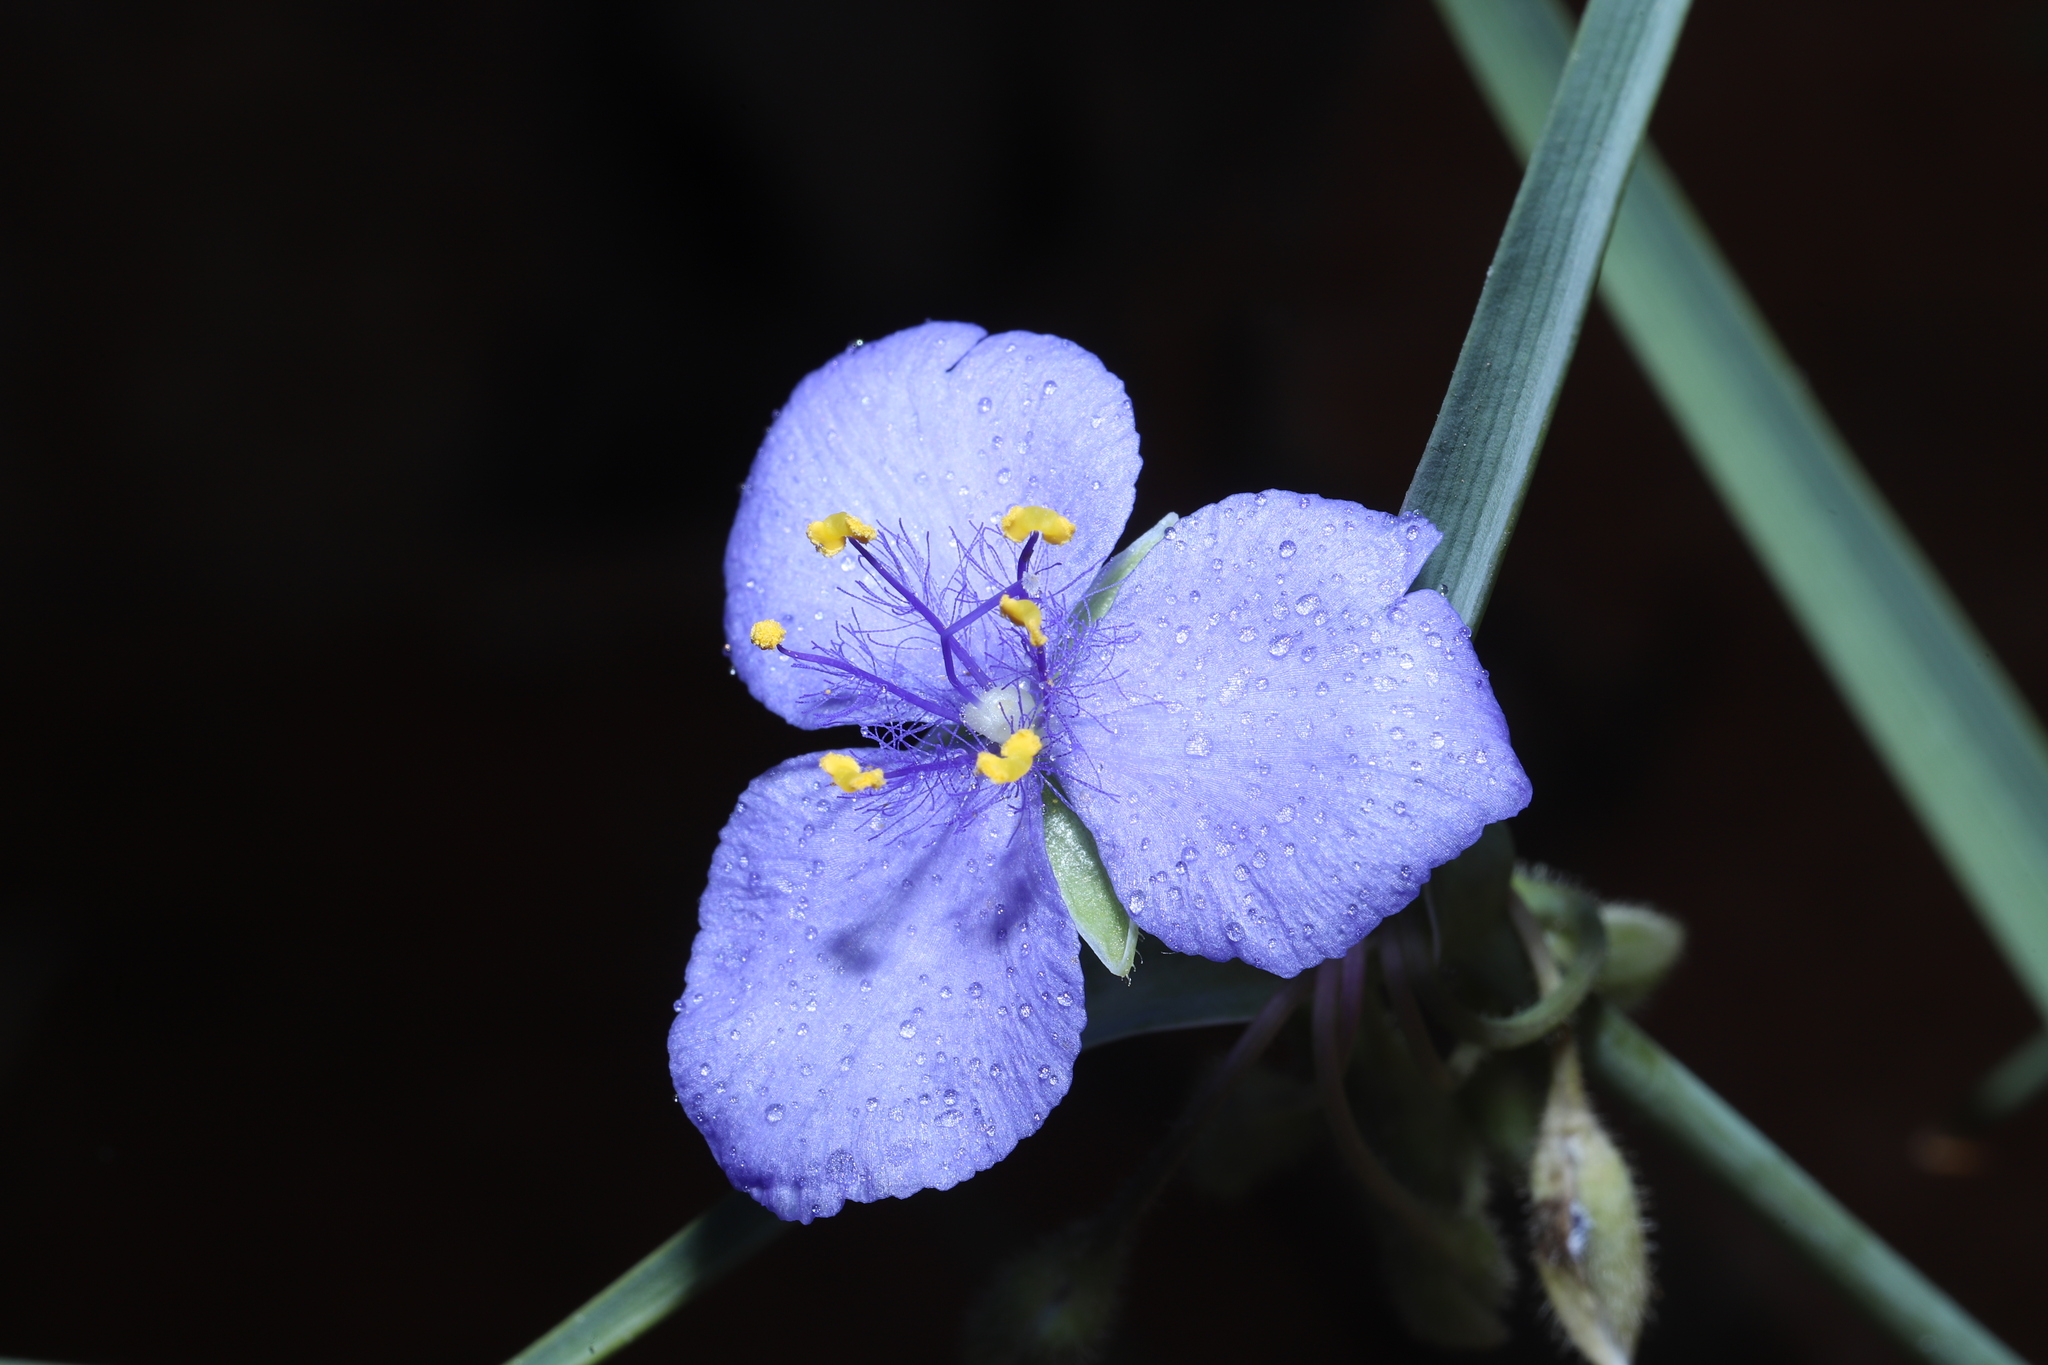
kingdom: Plantae
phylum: Tracheophyta
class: Liliopsida
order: Commelinales
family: Commelinaceae
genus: Tradescantia
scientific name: Tradescantia occidentalis
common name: Prairie spiderwort
